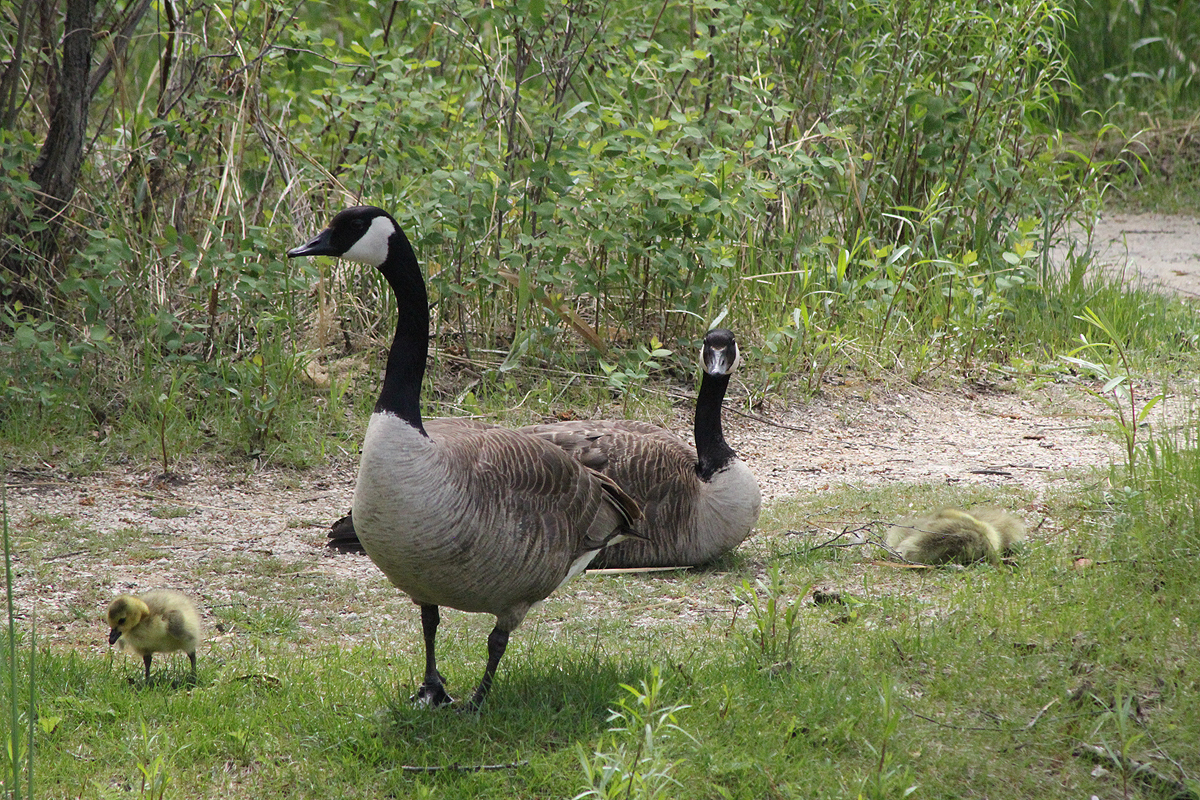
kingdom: Animalia
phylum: Chordata
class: Aves
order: Anseriformes
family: Anatidae
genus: Branta
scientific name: Branta canadensis
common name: Canada goose
